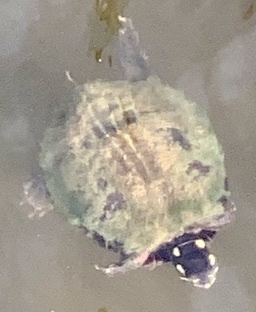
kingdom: Animalia
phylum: Chordata
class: Testudines
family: Emydidae
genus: Chrysemys
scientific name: Chrysemys picta
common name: Painted turtle
